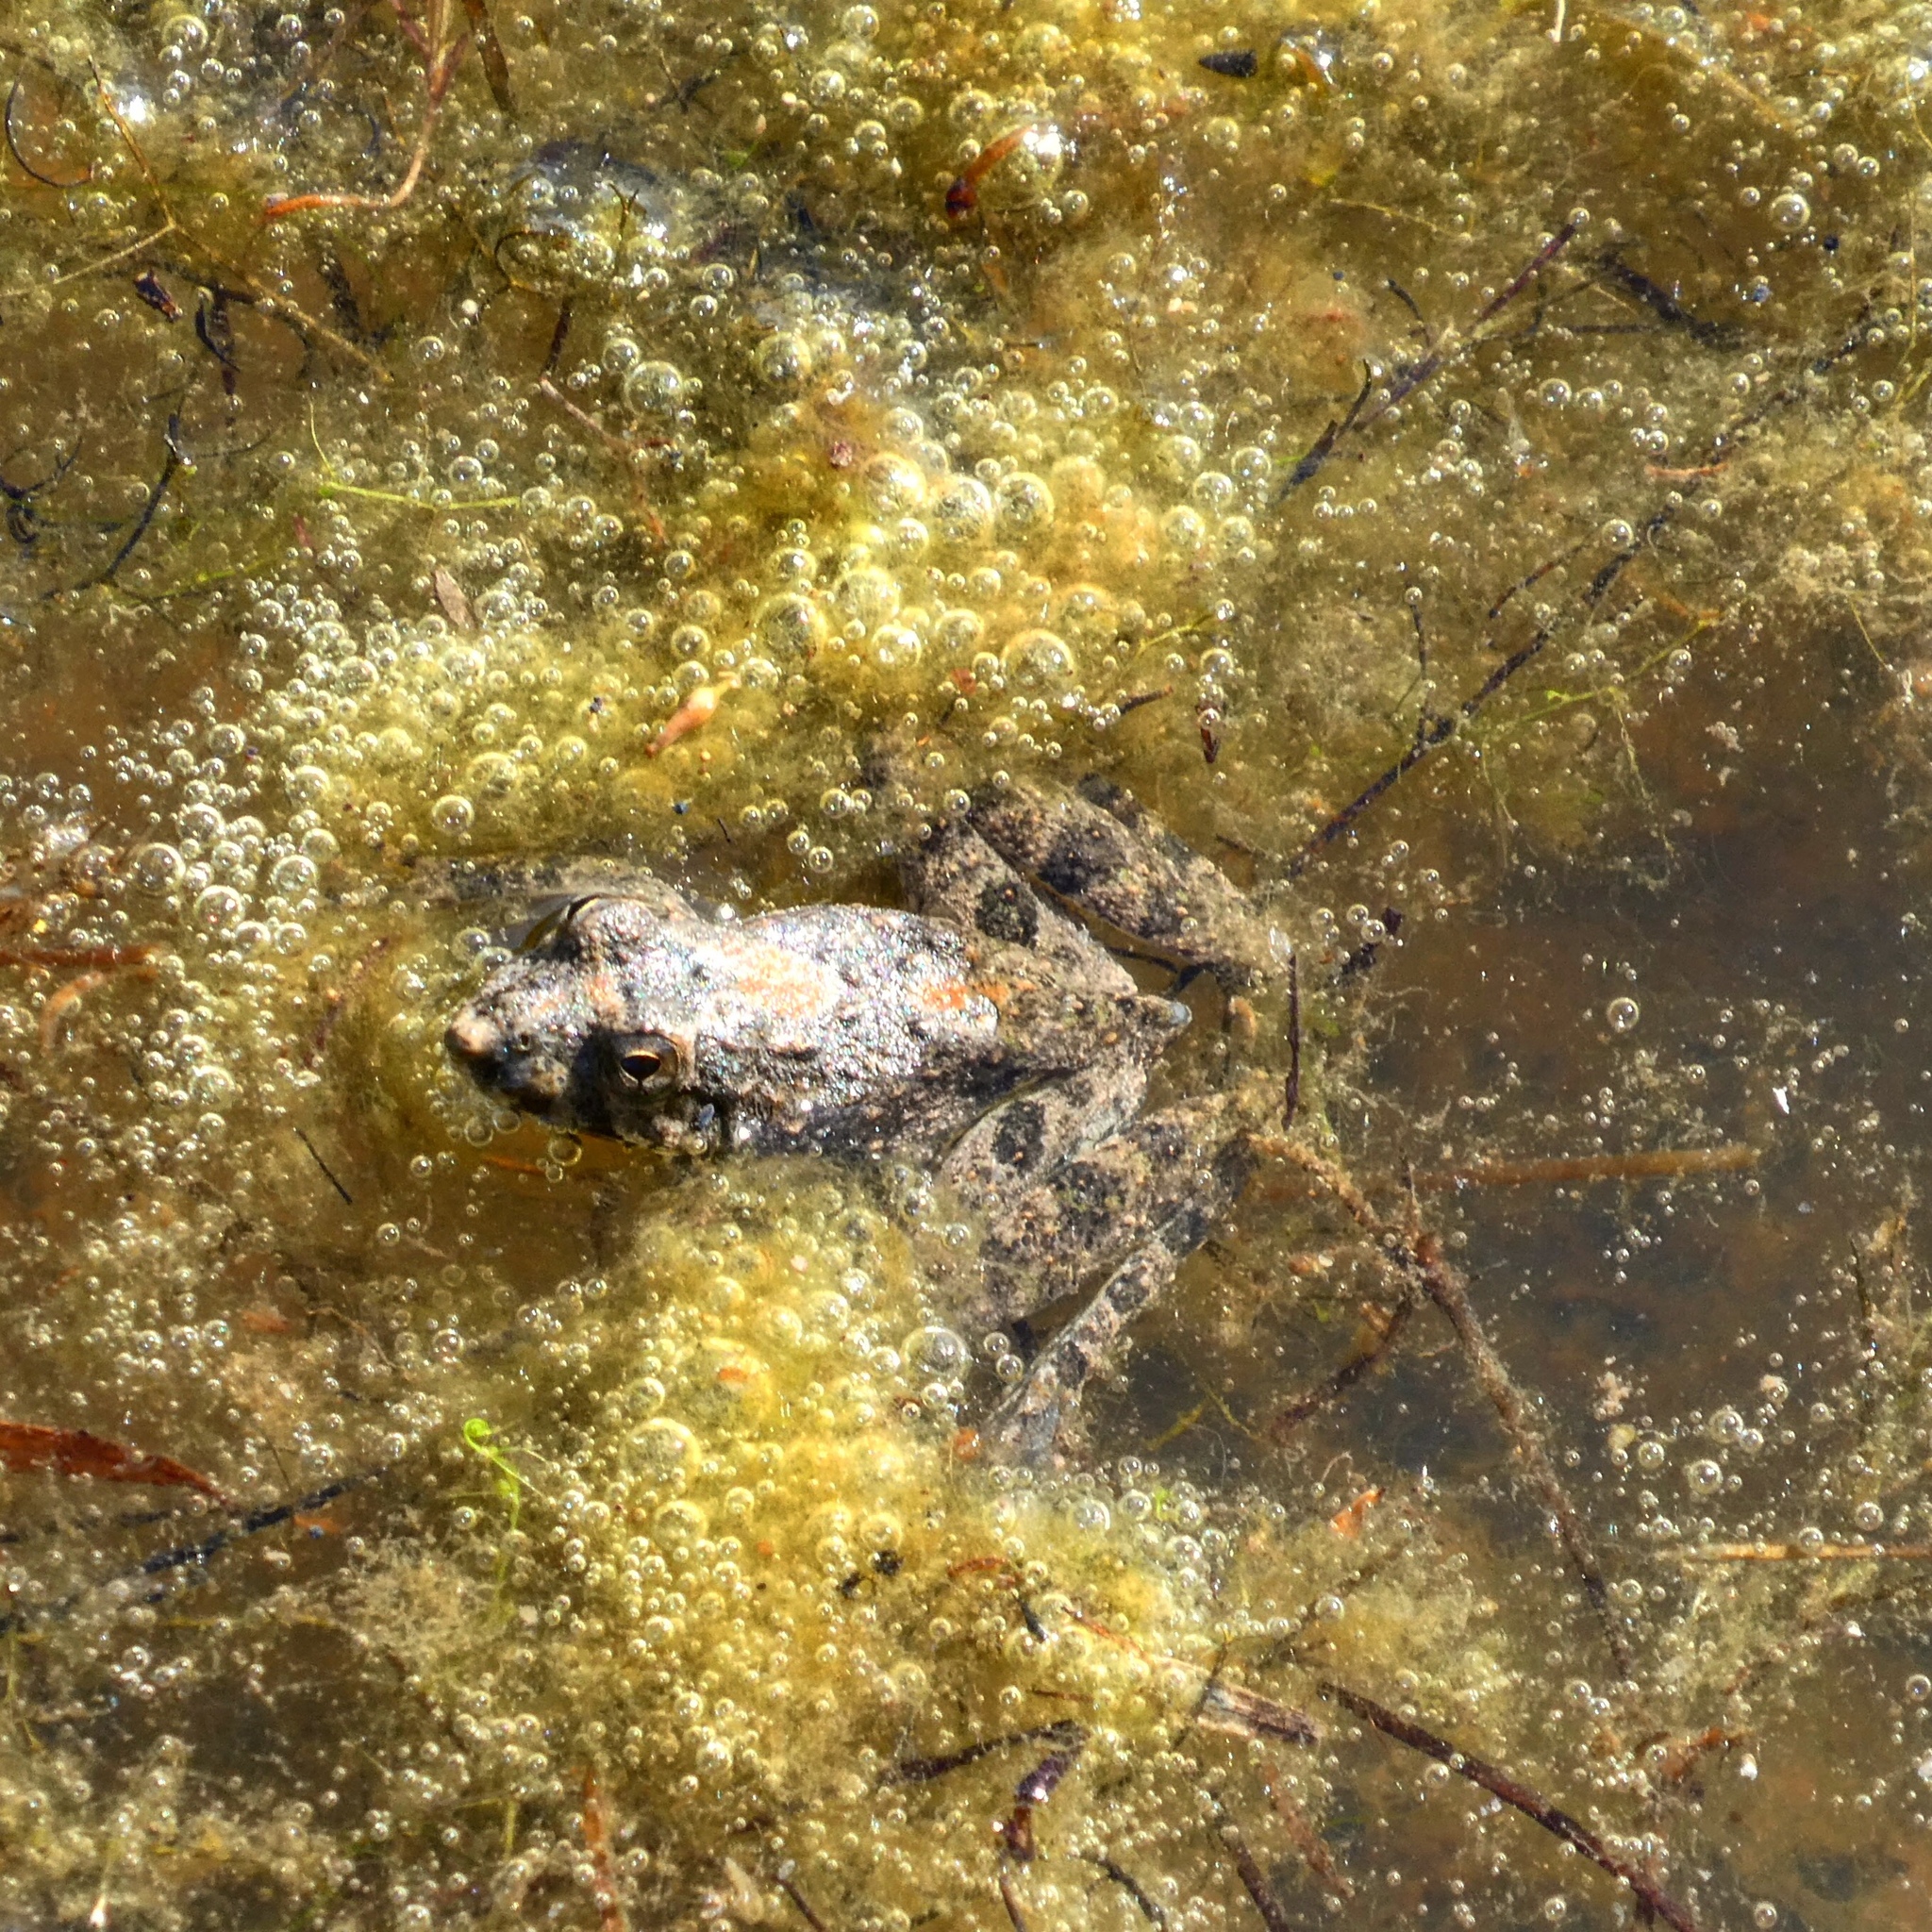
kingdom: Animalia
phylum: Chordata
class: Amphibia
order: Anura
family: Hylidae
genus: Acris
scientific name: Acris blanchardi
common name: Blanchard's cricket frog
